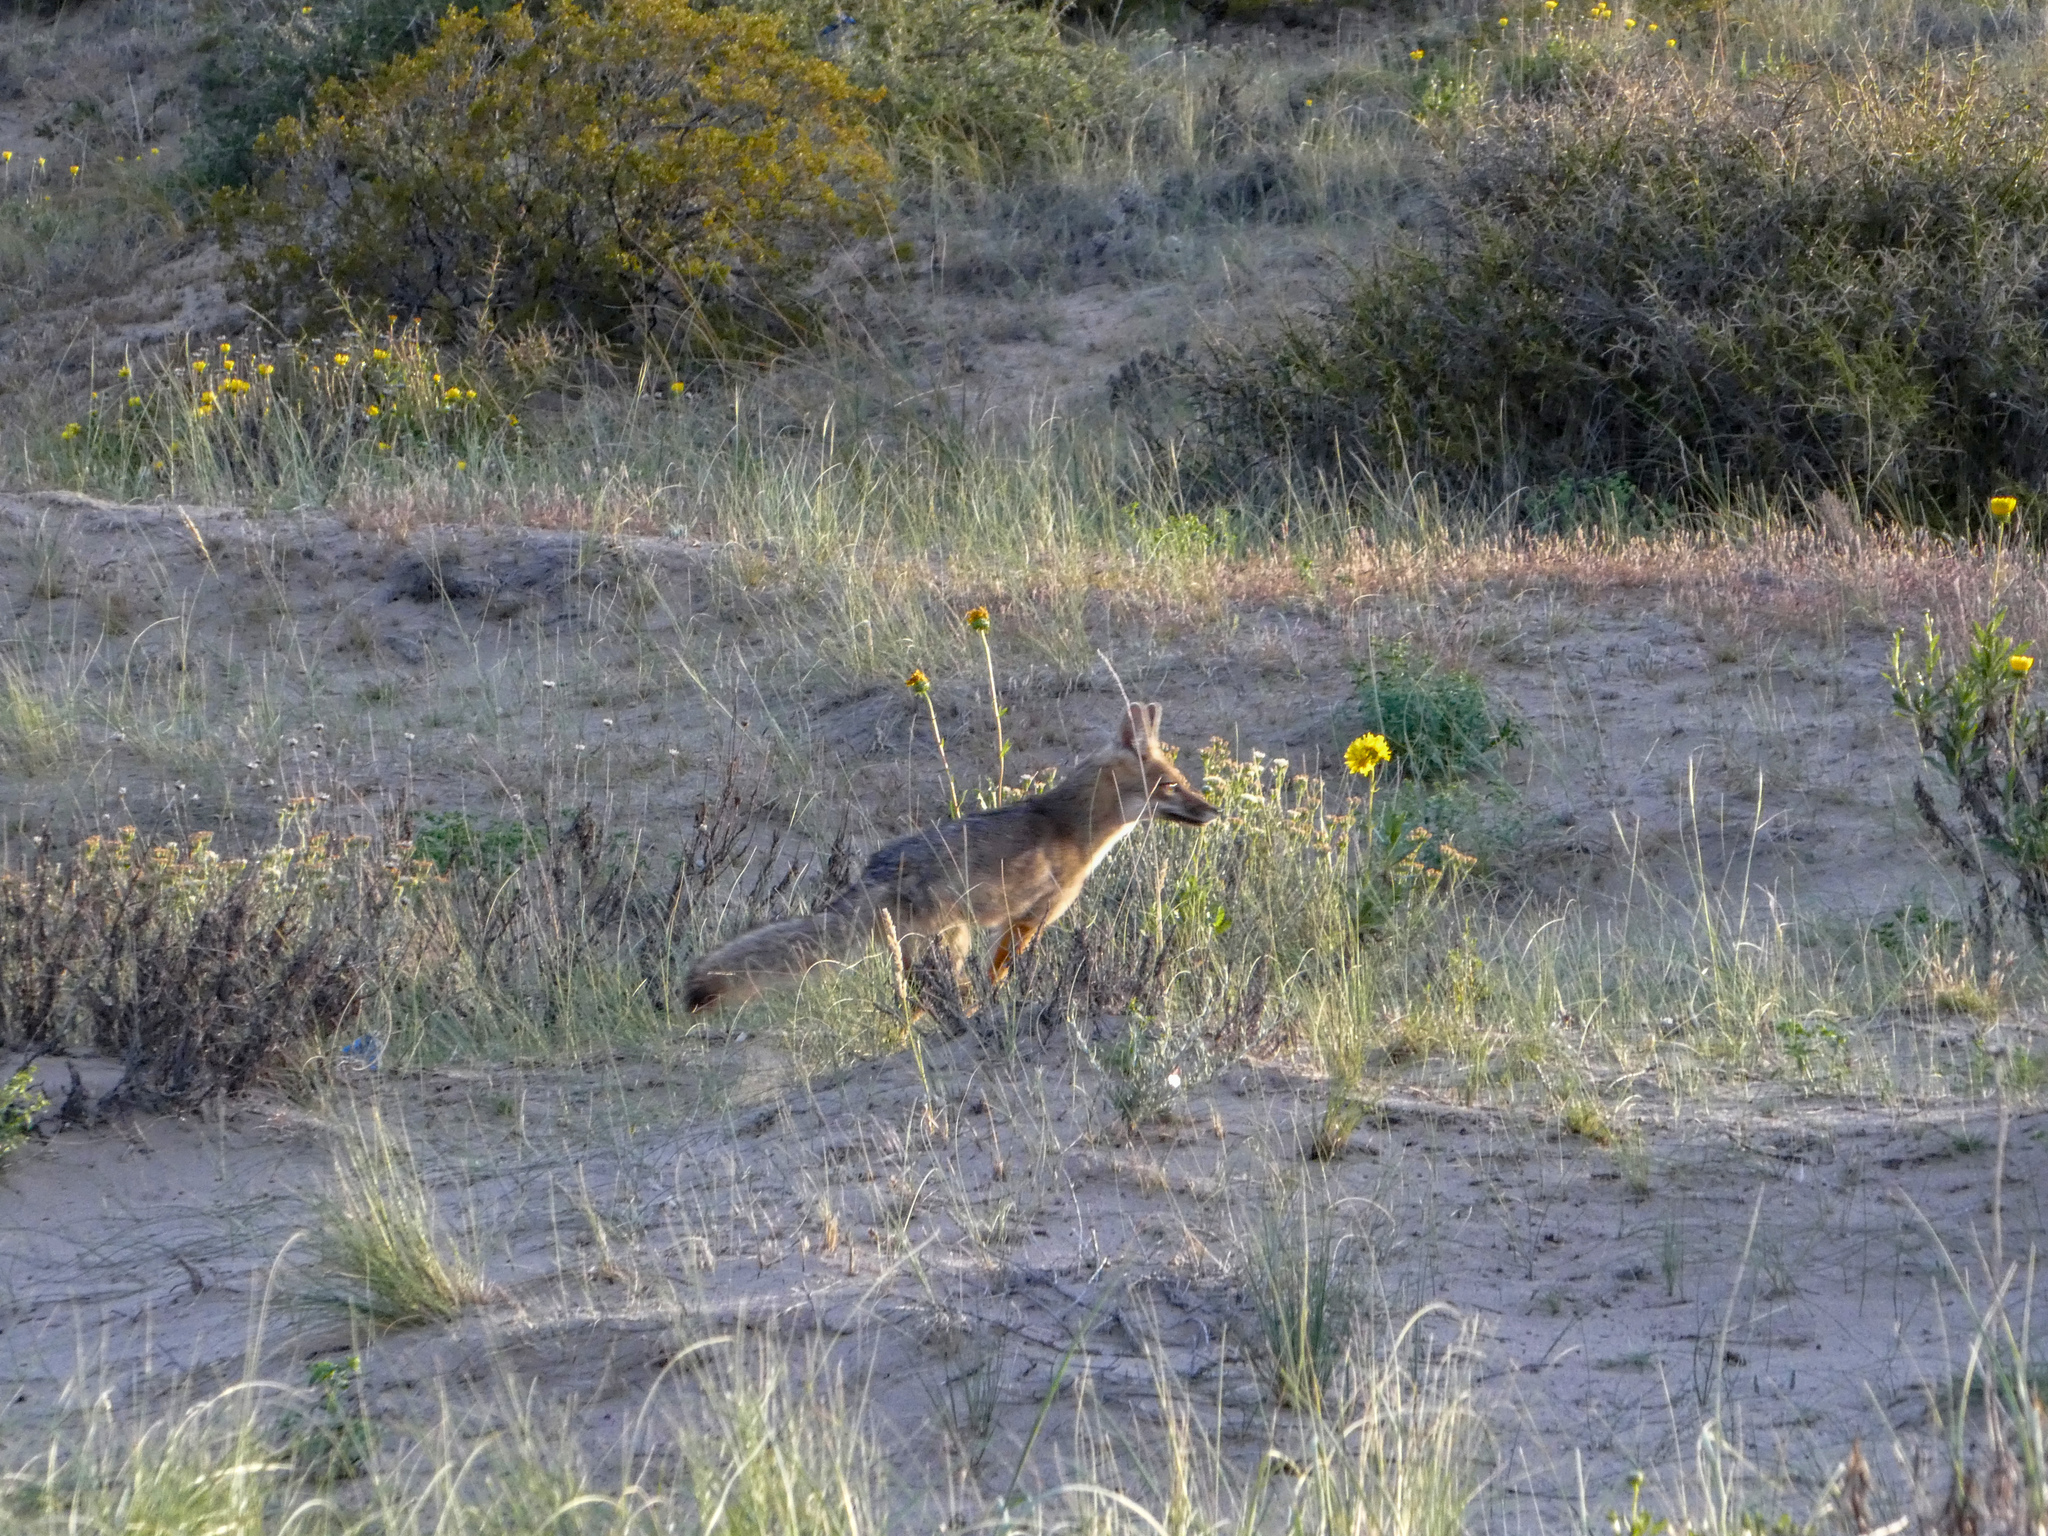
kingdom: Animalia
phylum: Chordata
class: Mammalia
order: Carnivora
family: Canidae
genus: Lycalopex
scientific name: Lycalopex gymnocercus
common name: Pampas fox
